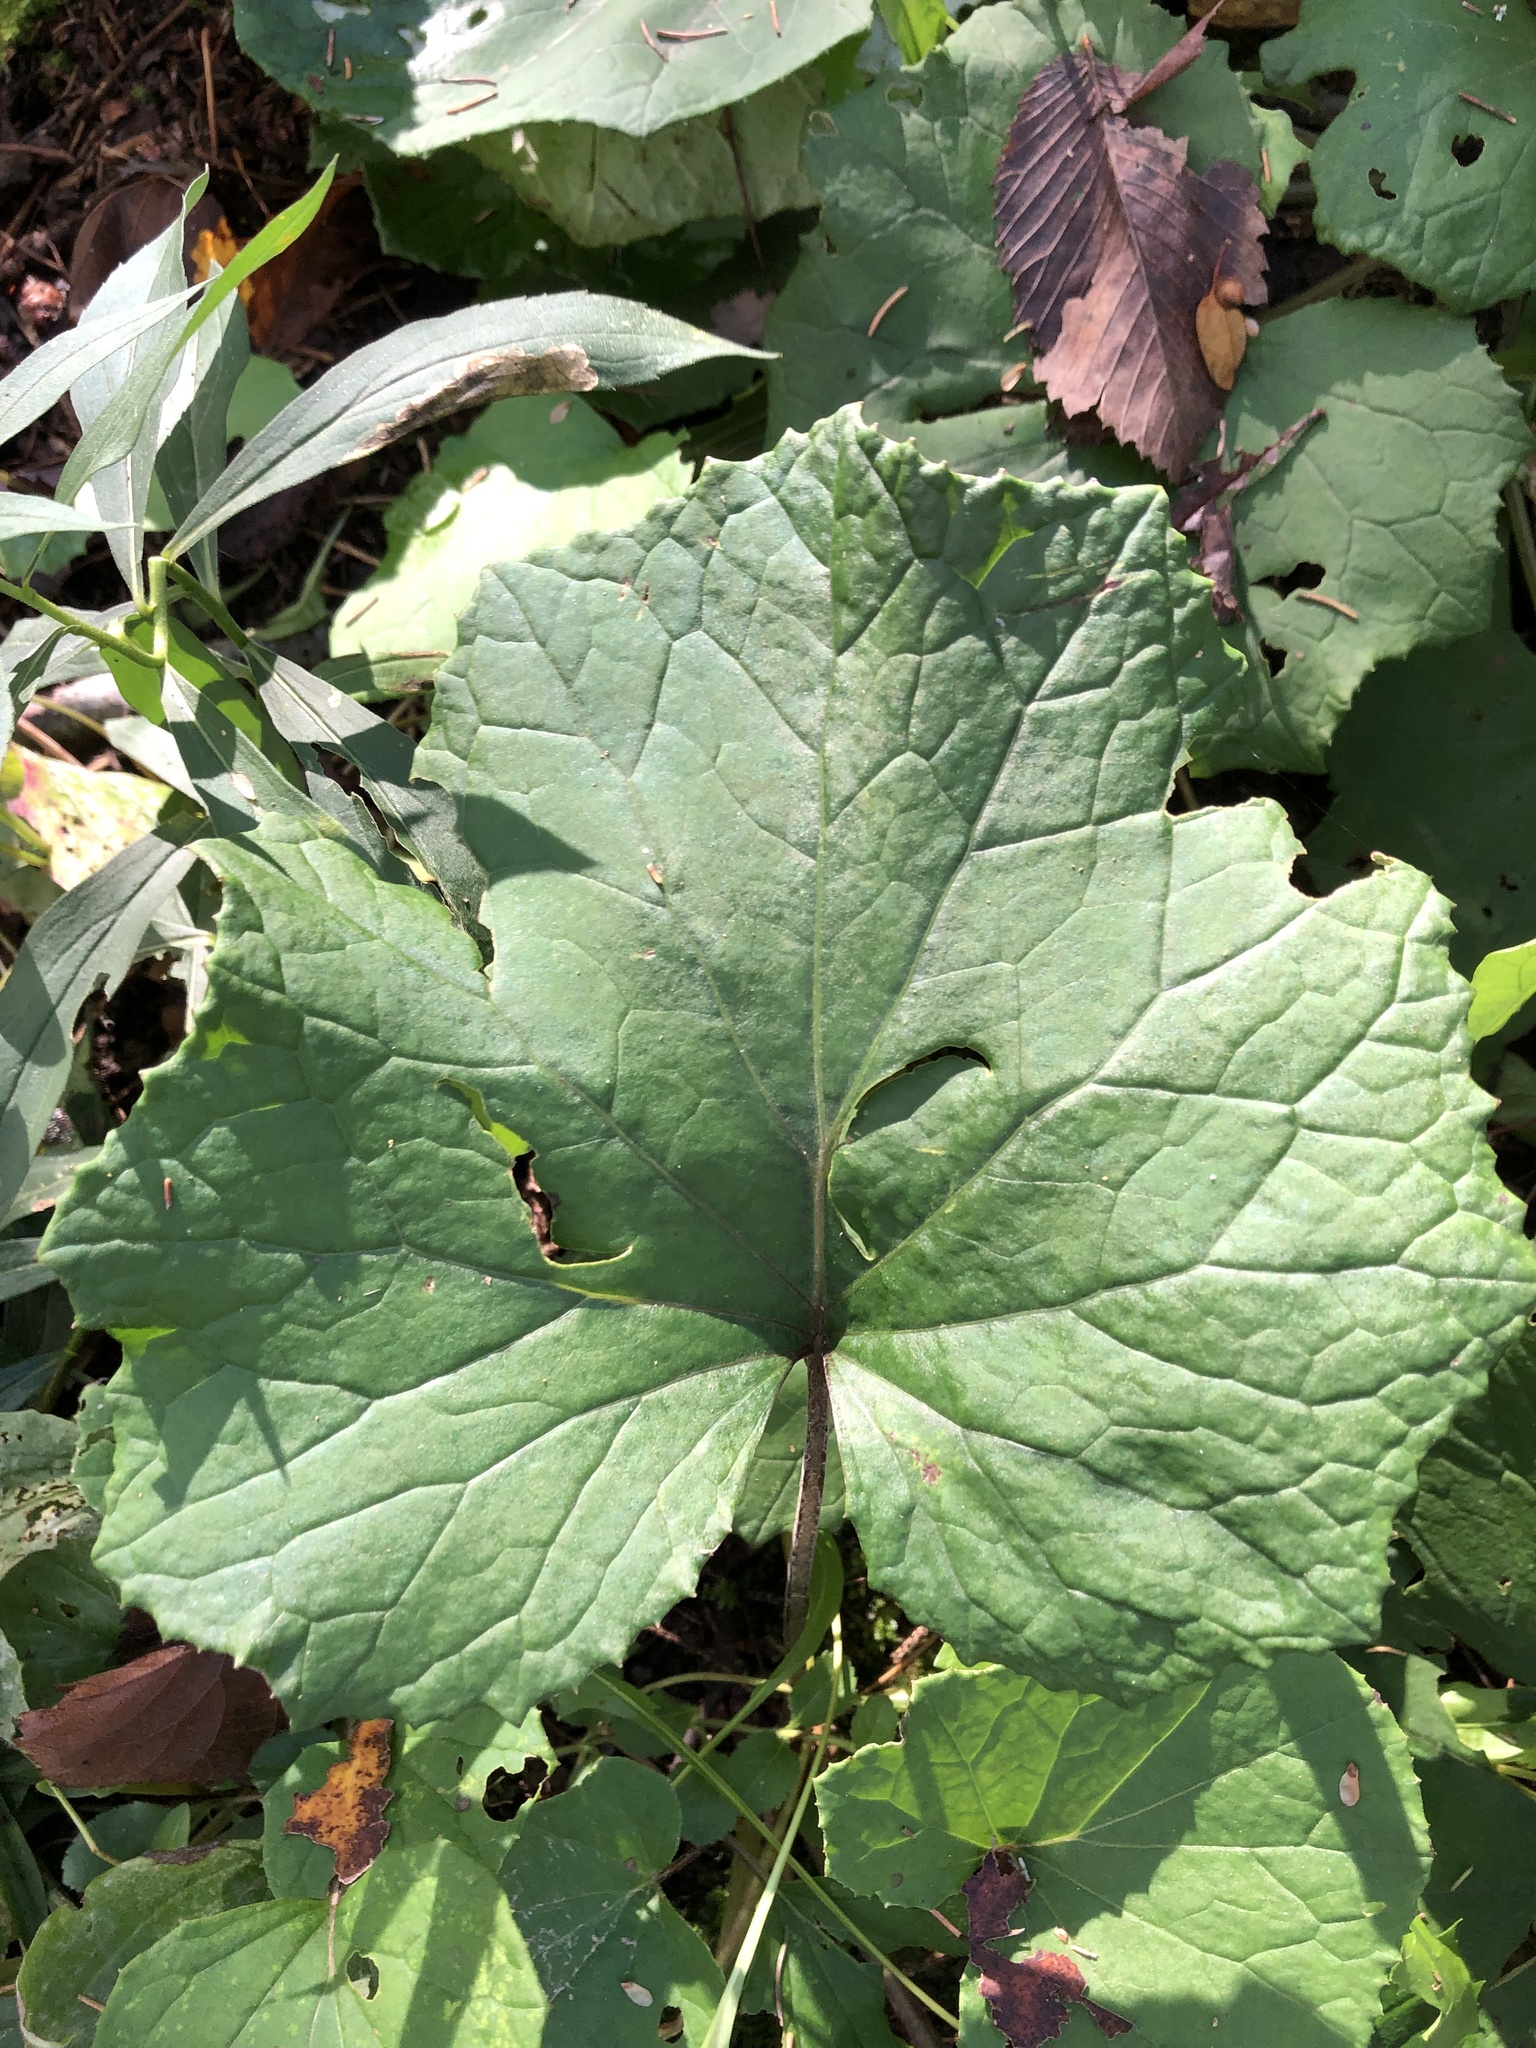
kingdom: Plantae
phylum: Tracheophyta
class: Magnoliopsida
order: Asterales
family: Asteraceae
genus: Tussilago
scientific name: Tussilago farfara
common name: Coltsfoot
